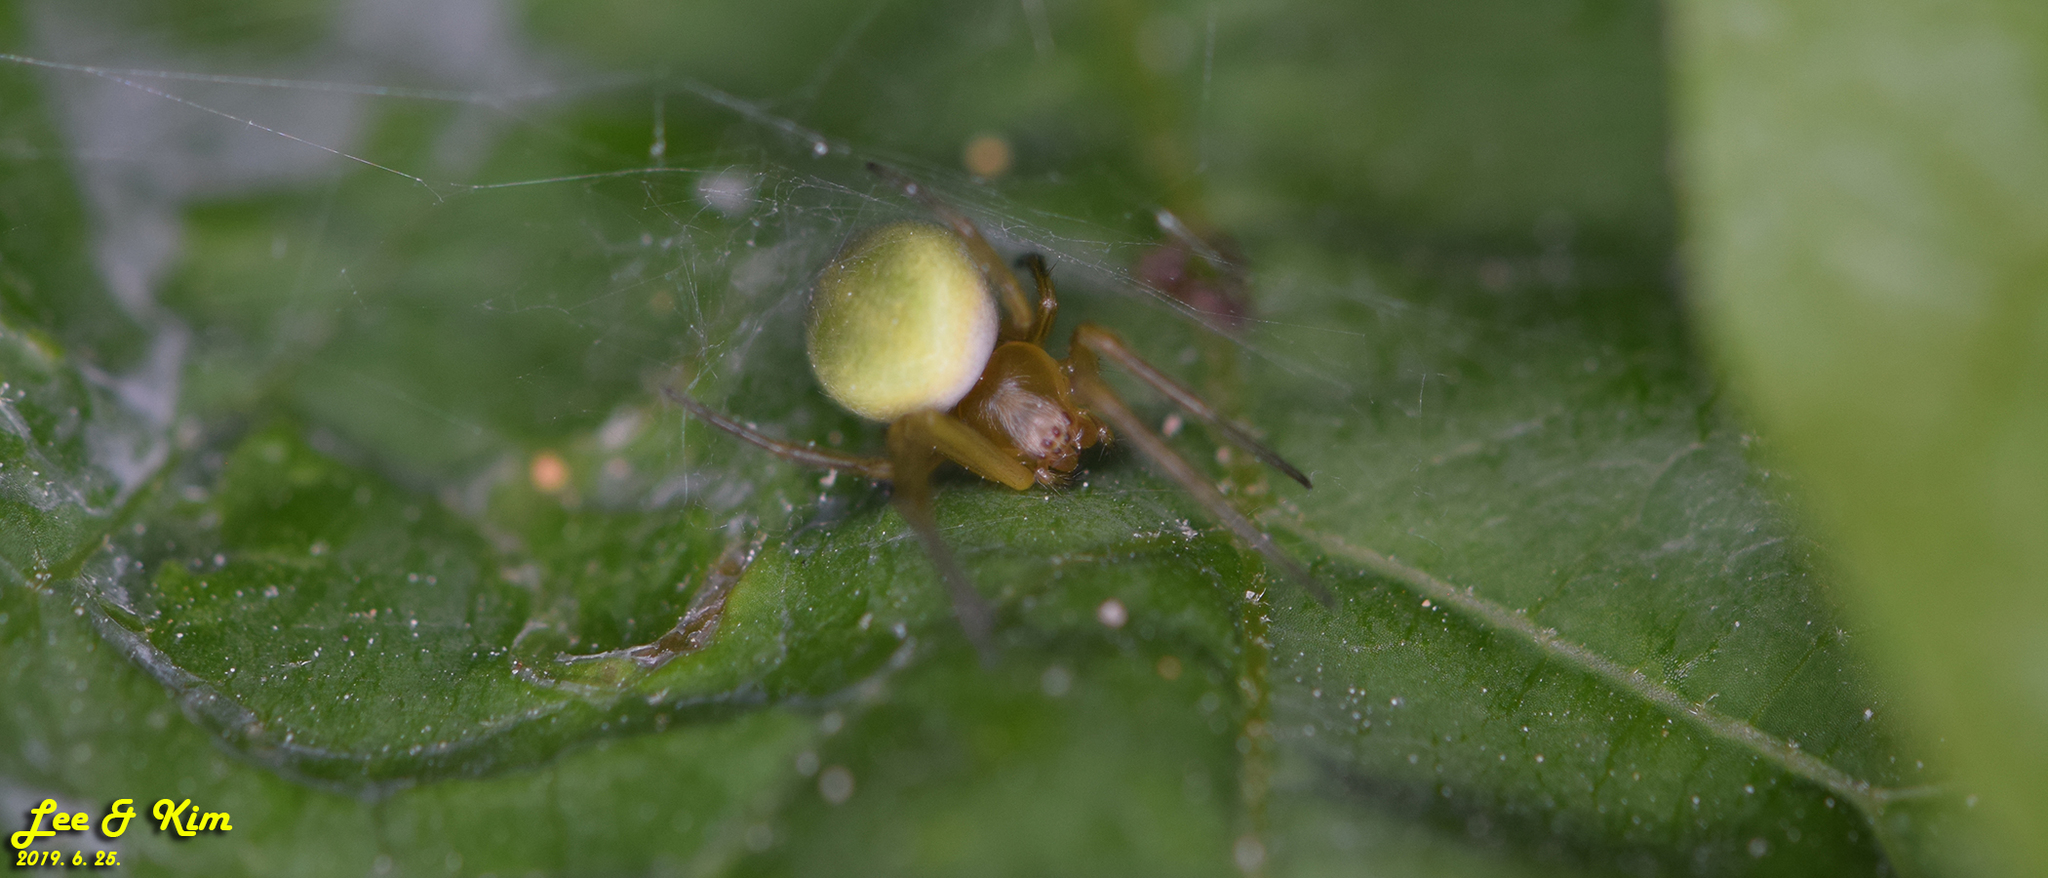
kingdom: Animalia
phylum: Arthropoda
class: Arachnida
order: Araneae
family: Araneidae
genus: Neoscona
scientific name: Neoscona scylloides
